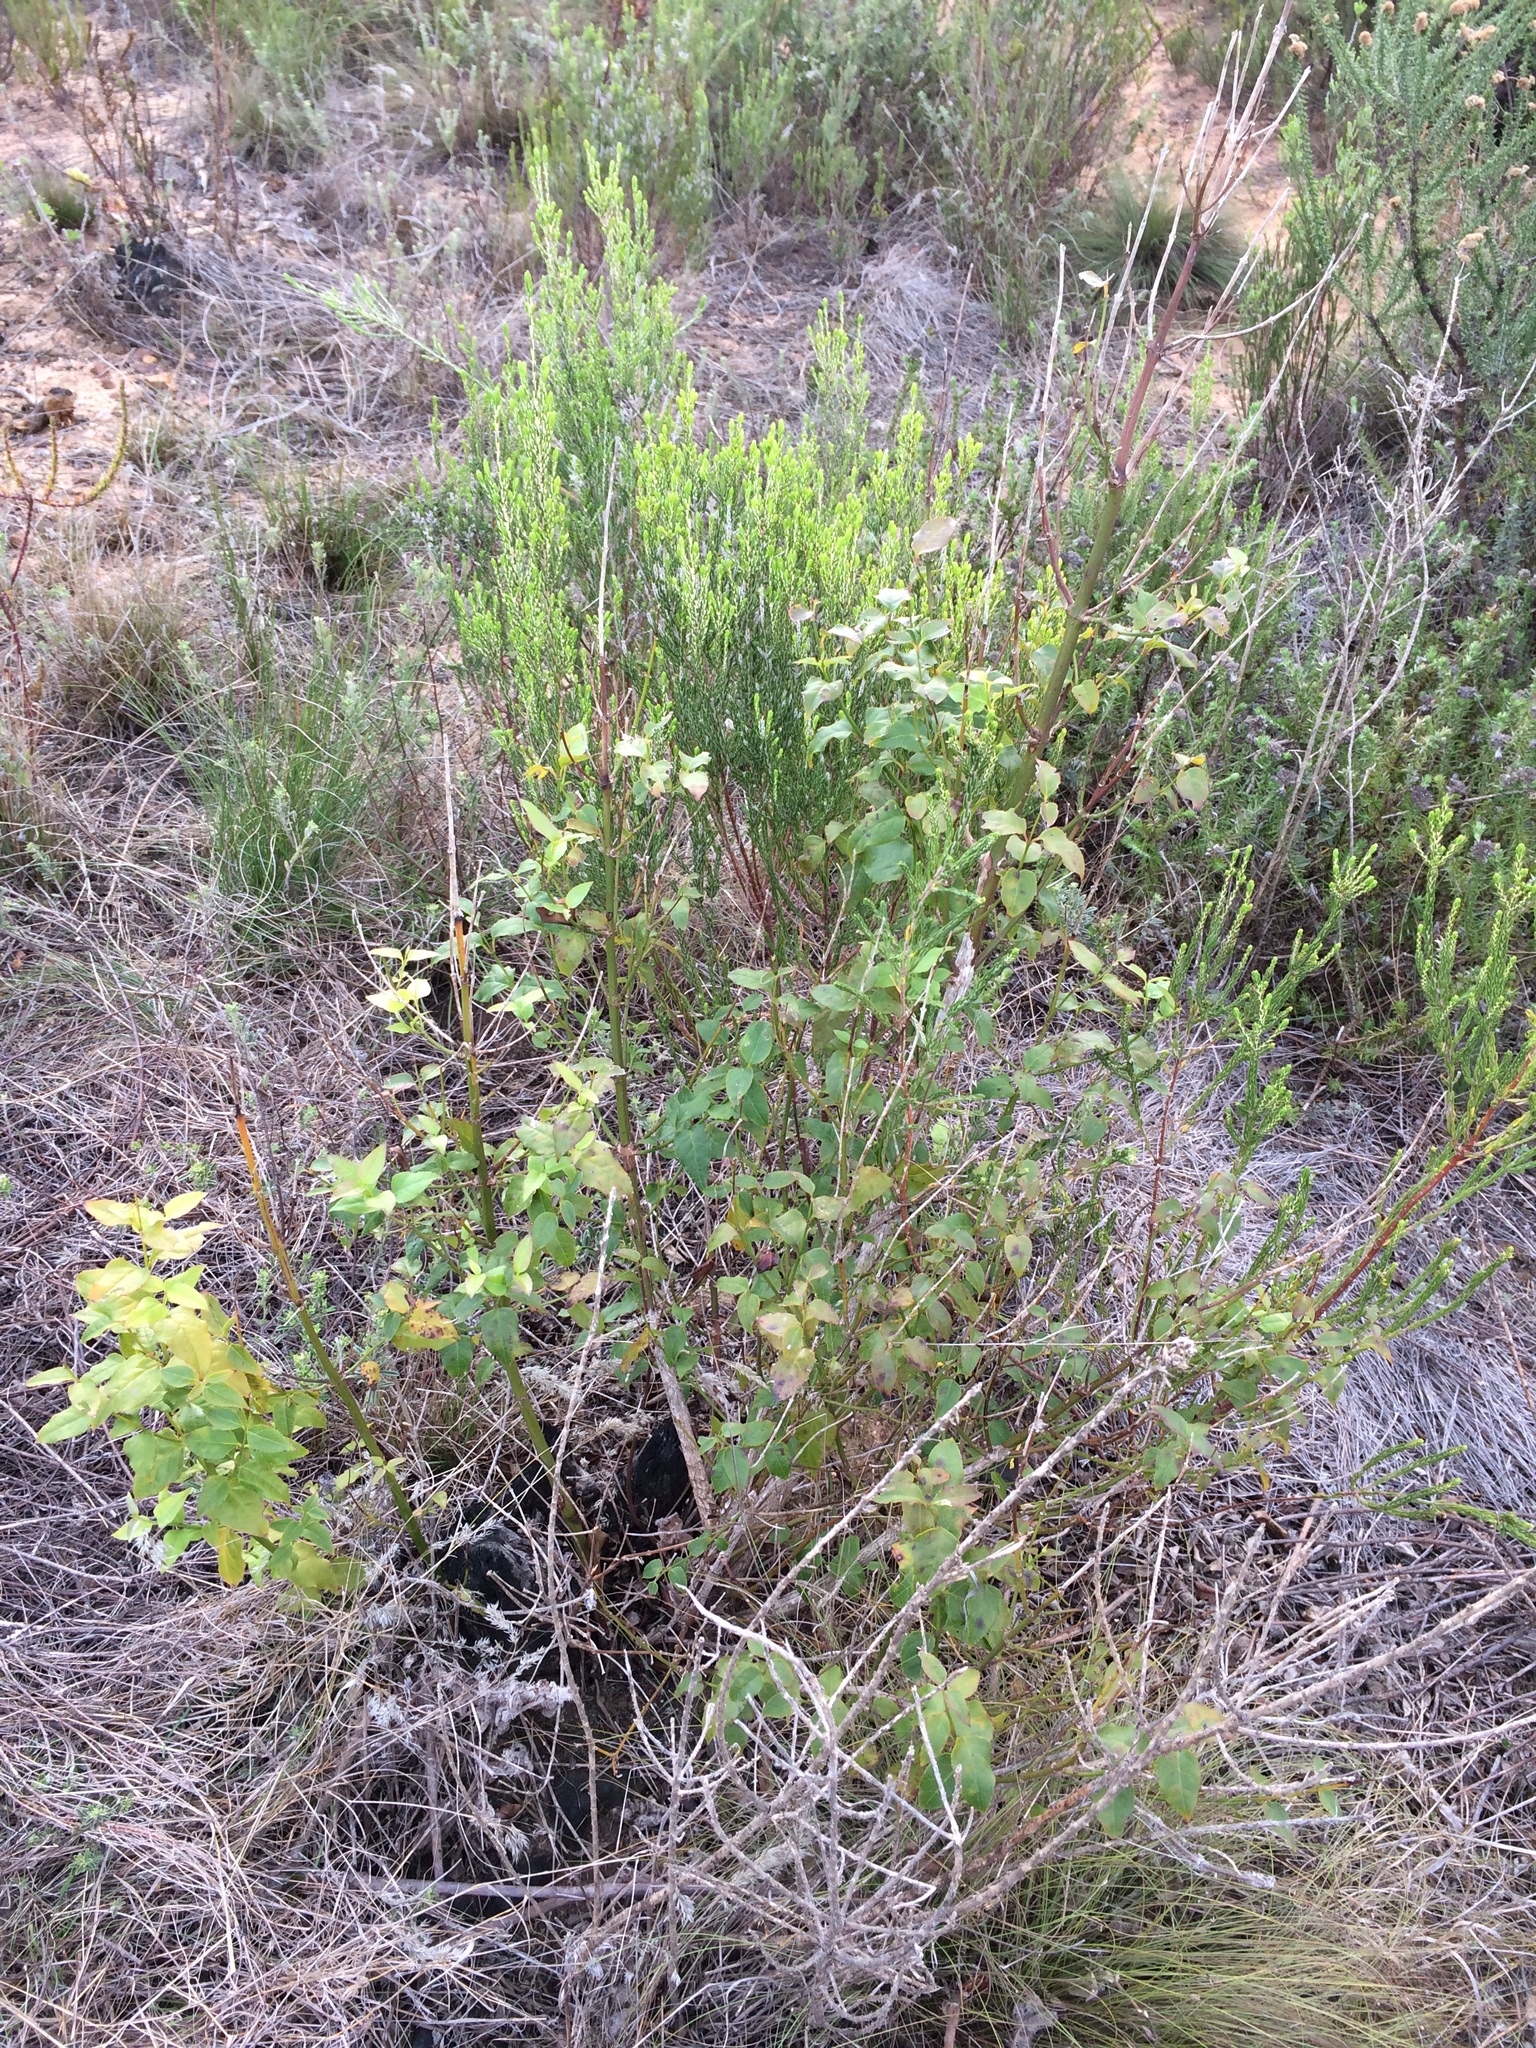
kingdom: Plantae
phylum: Tracheophyta
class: Magnoliopsida
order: Lamiales
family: Stilbaceae
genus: Halleria
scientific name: Halleria lucida
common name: Tree fuschia
